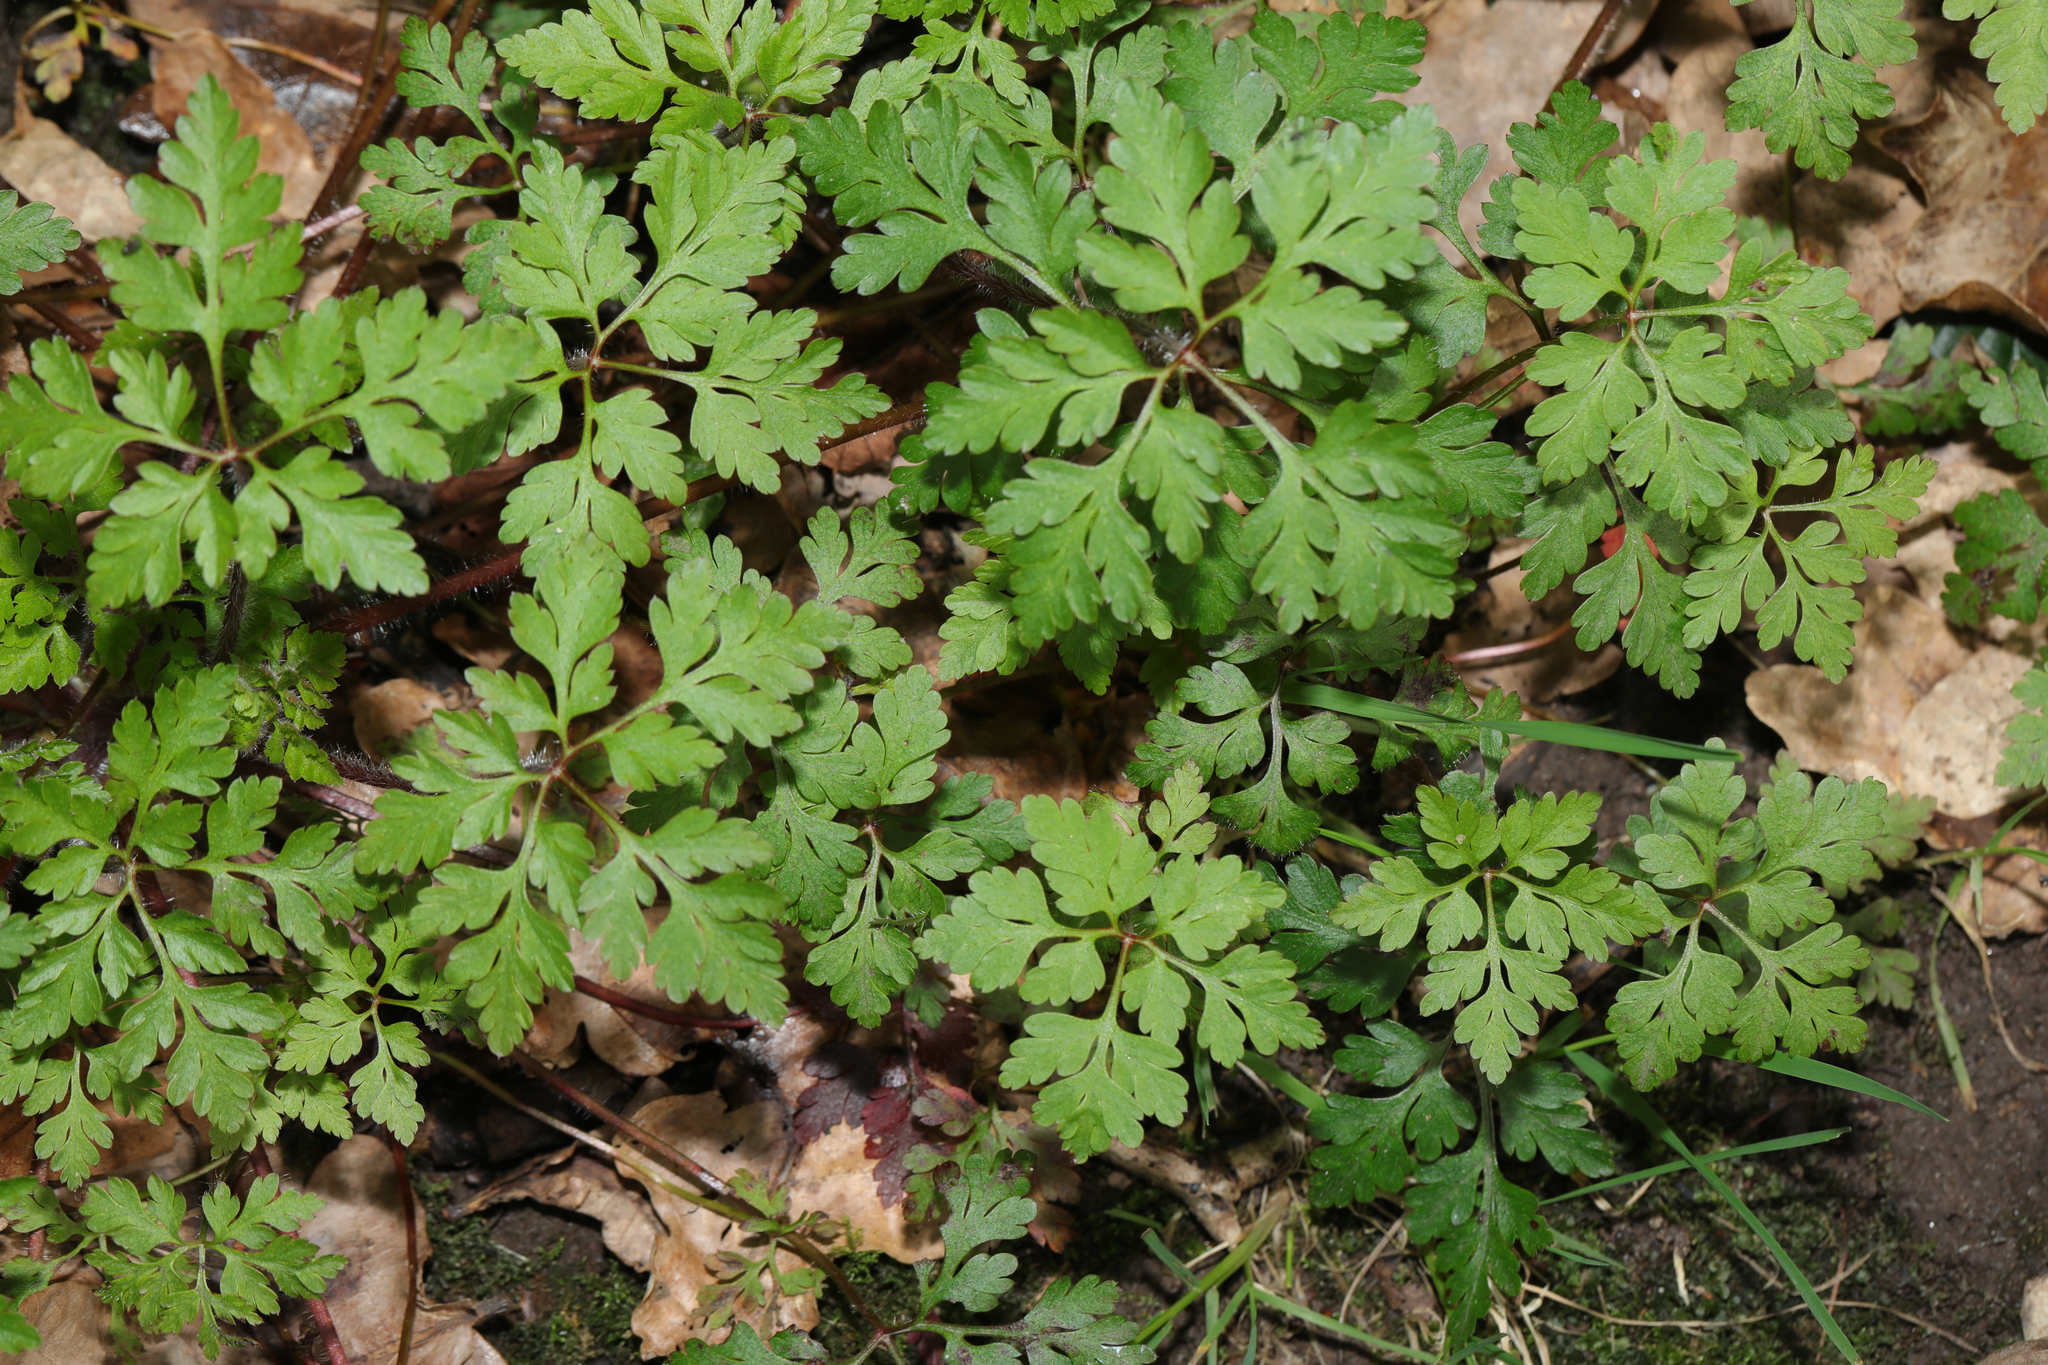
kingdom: Plantae
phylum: Tracheophyta
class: Magnoliopsida
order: Geraniales
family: Geraniaceae
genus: Geranium
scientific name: Geranium robertianum
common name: Herb-robert
